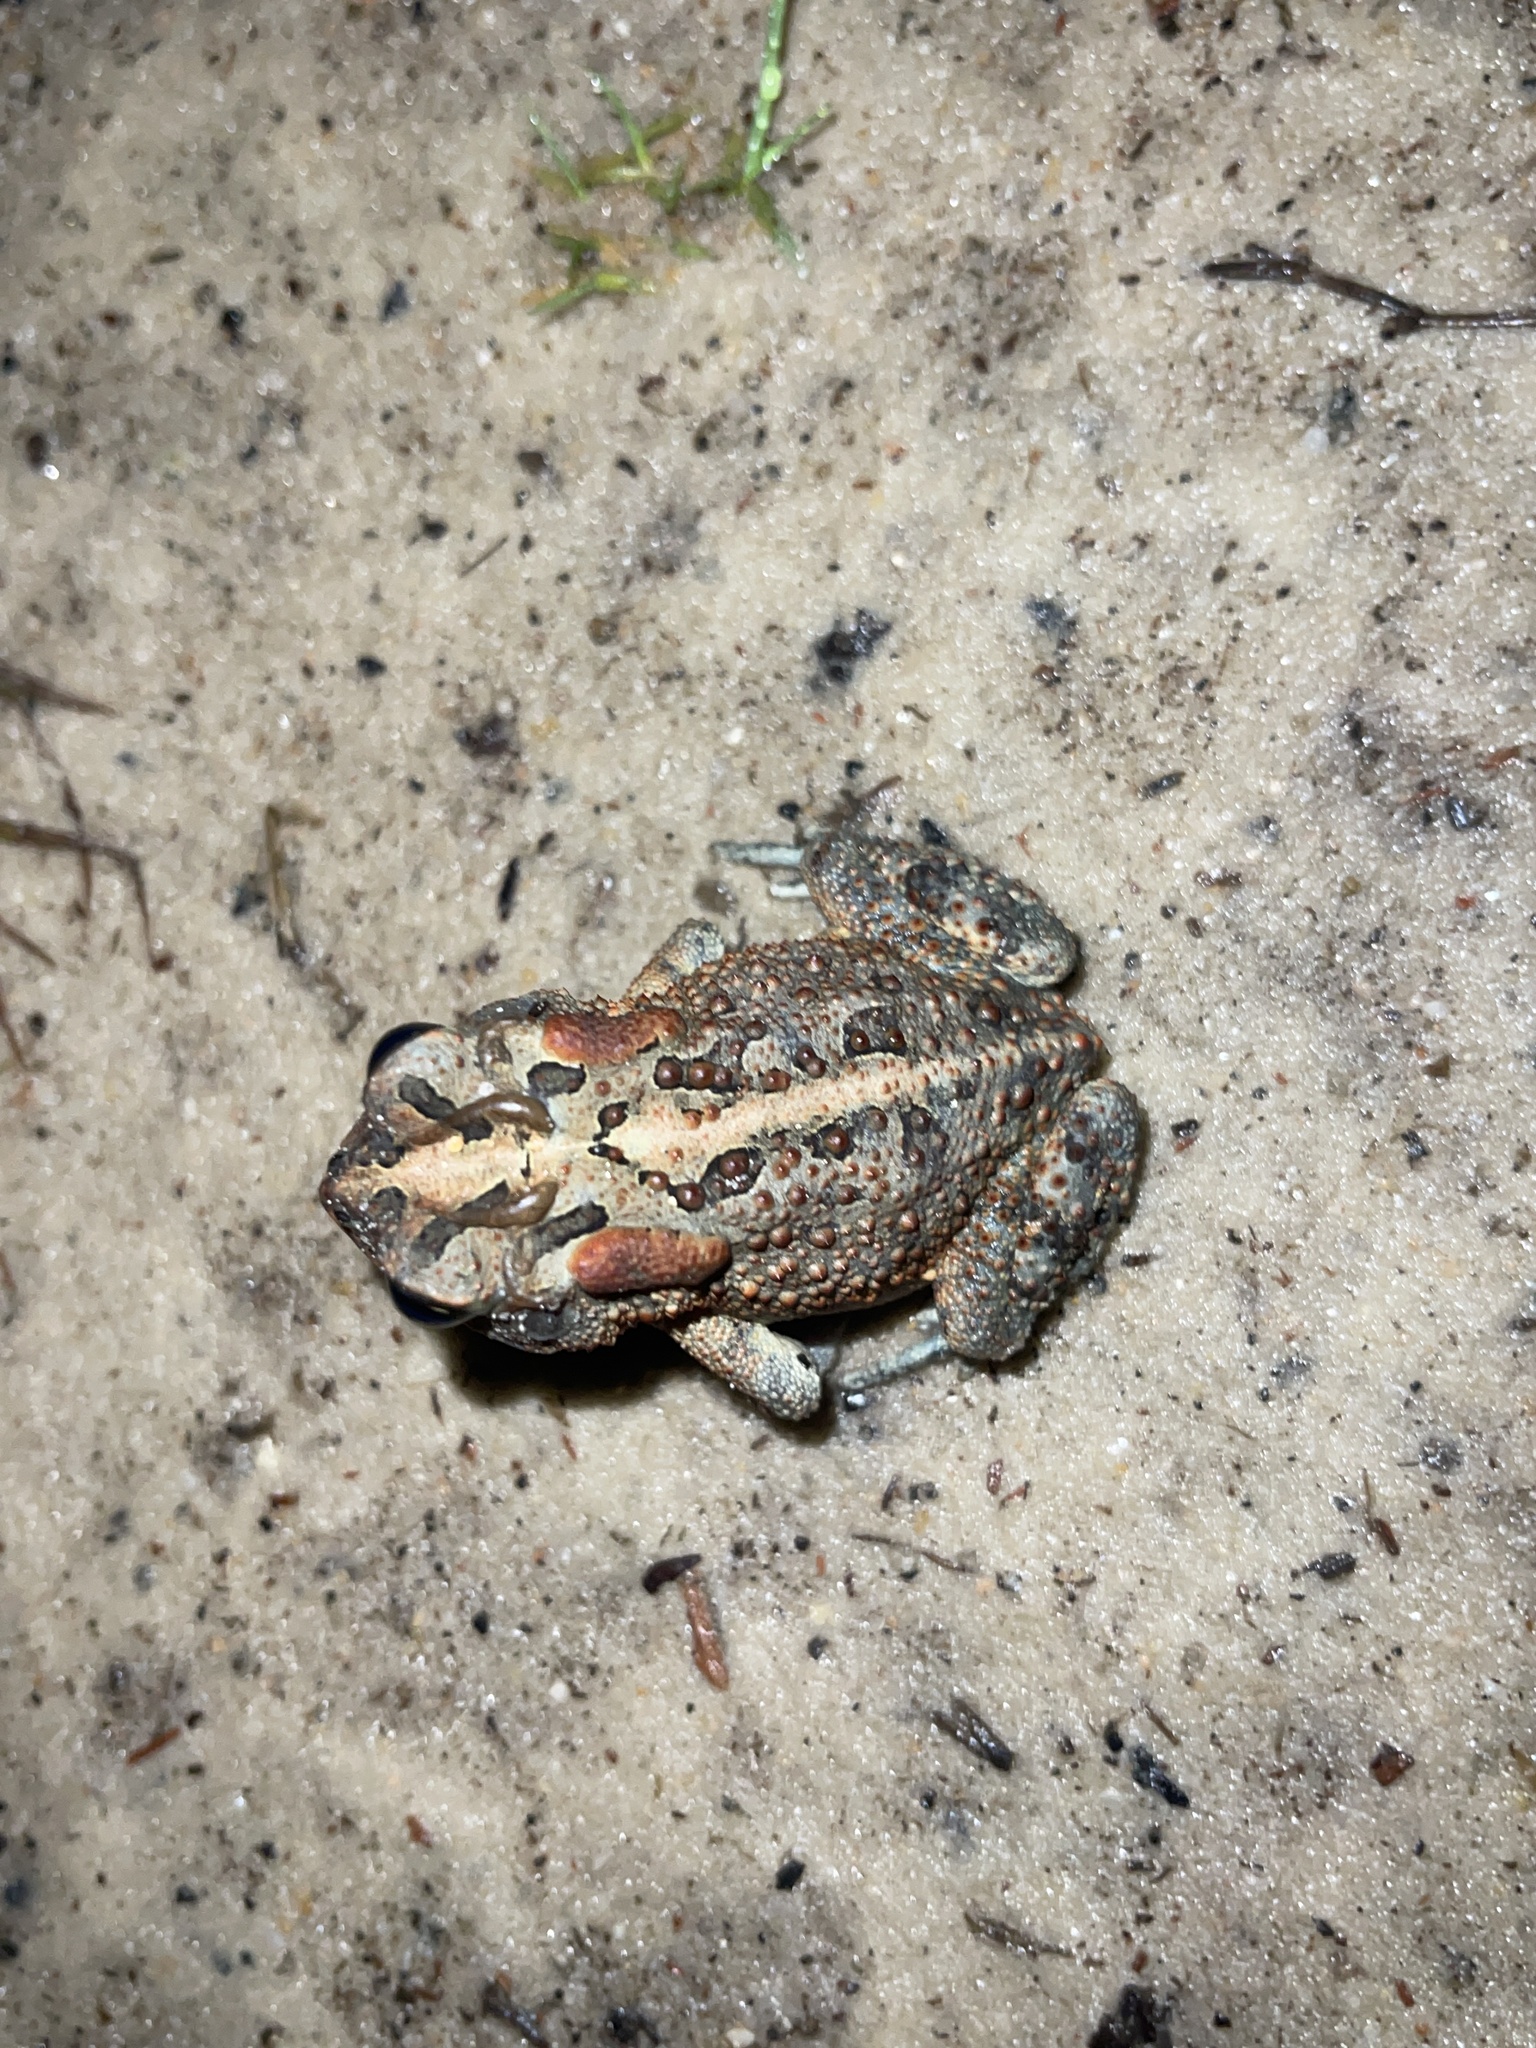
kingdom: Animalia
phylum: Chordata
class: Amphibia
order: Anura
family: Bufonidae
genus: Anaxyrus
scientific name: Anaxyrus terrestris
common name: Southern toad
